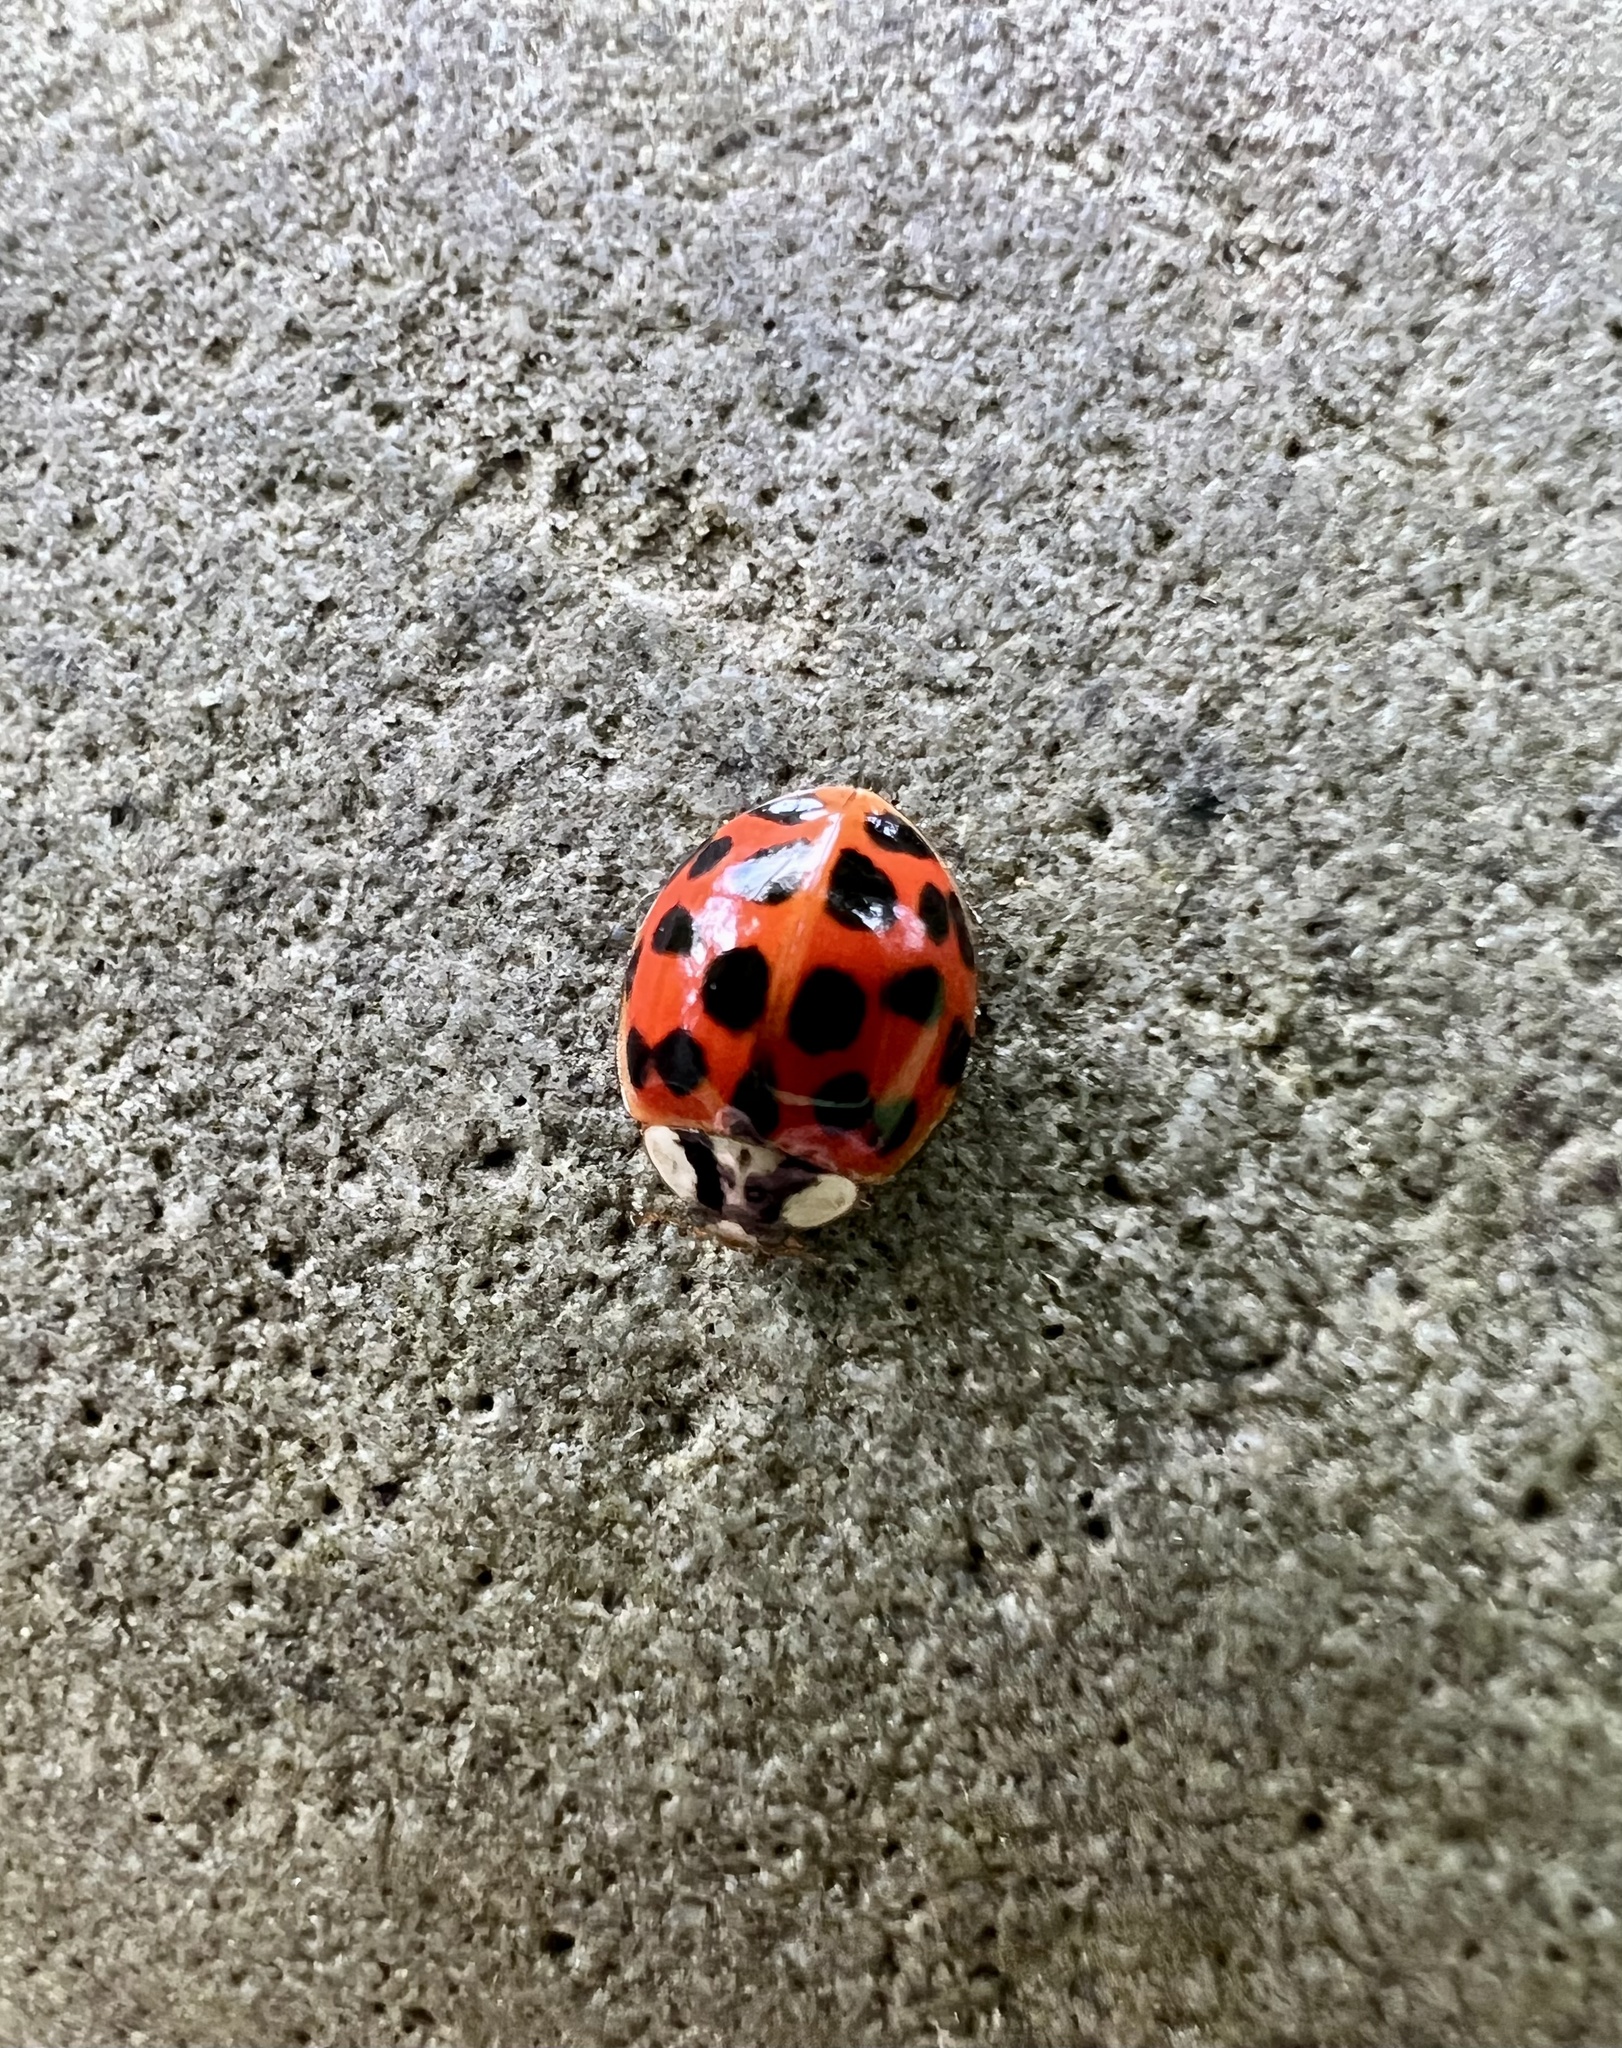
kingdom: Animalia
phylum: Arthropoda
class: Insecta
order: Coleoptera
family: Coccinellidae
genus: Harmonia
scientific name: Harmonia axyridis
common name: Harlequin ladybird
